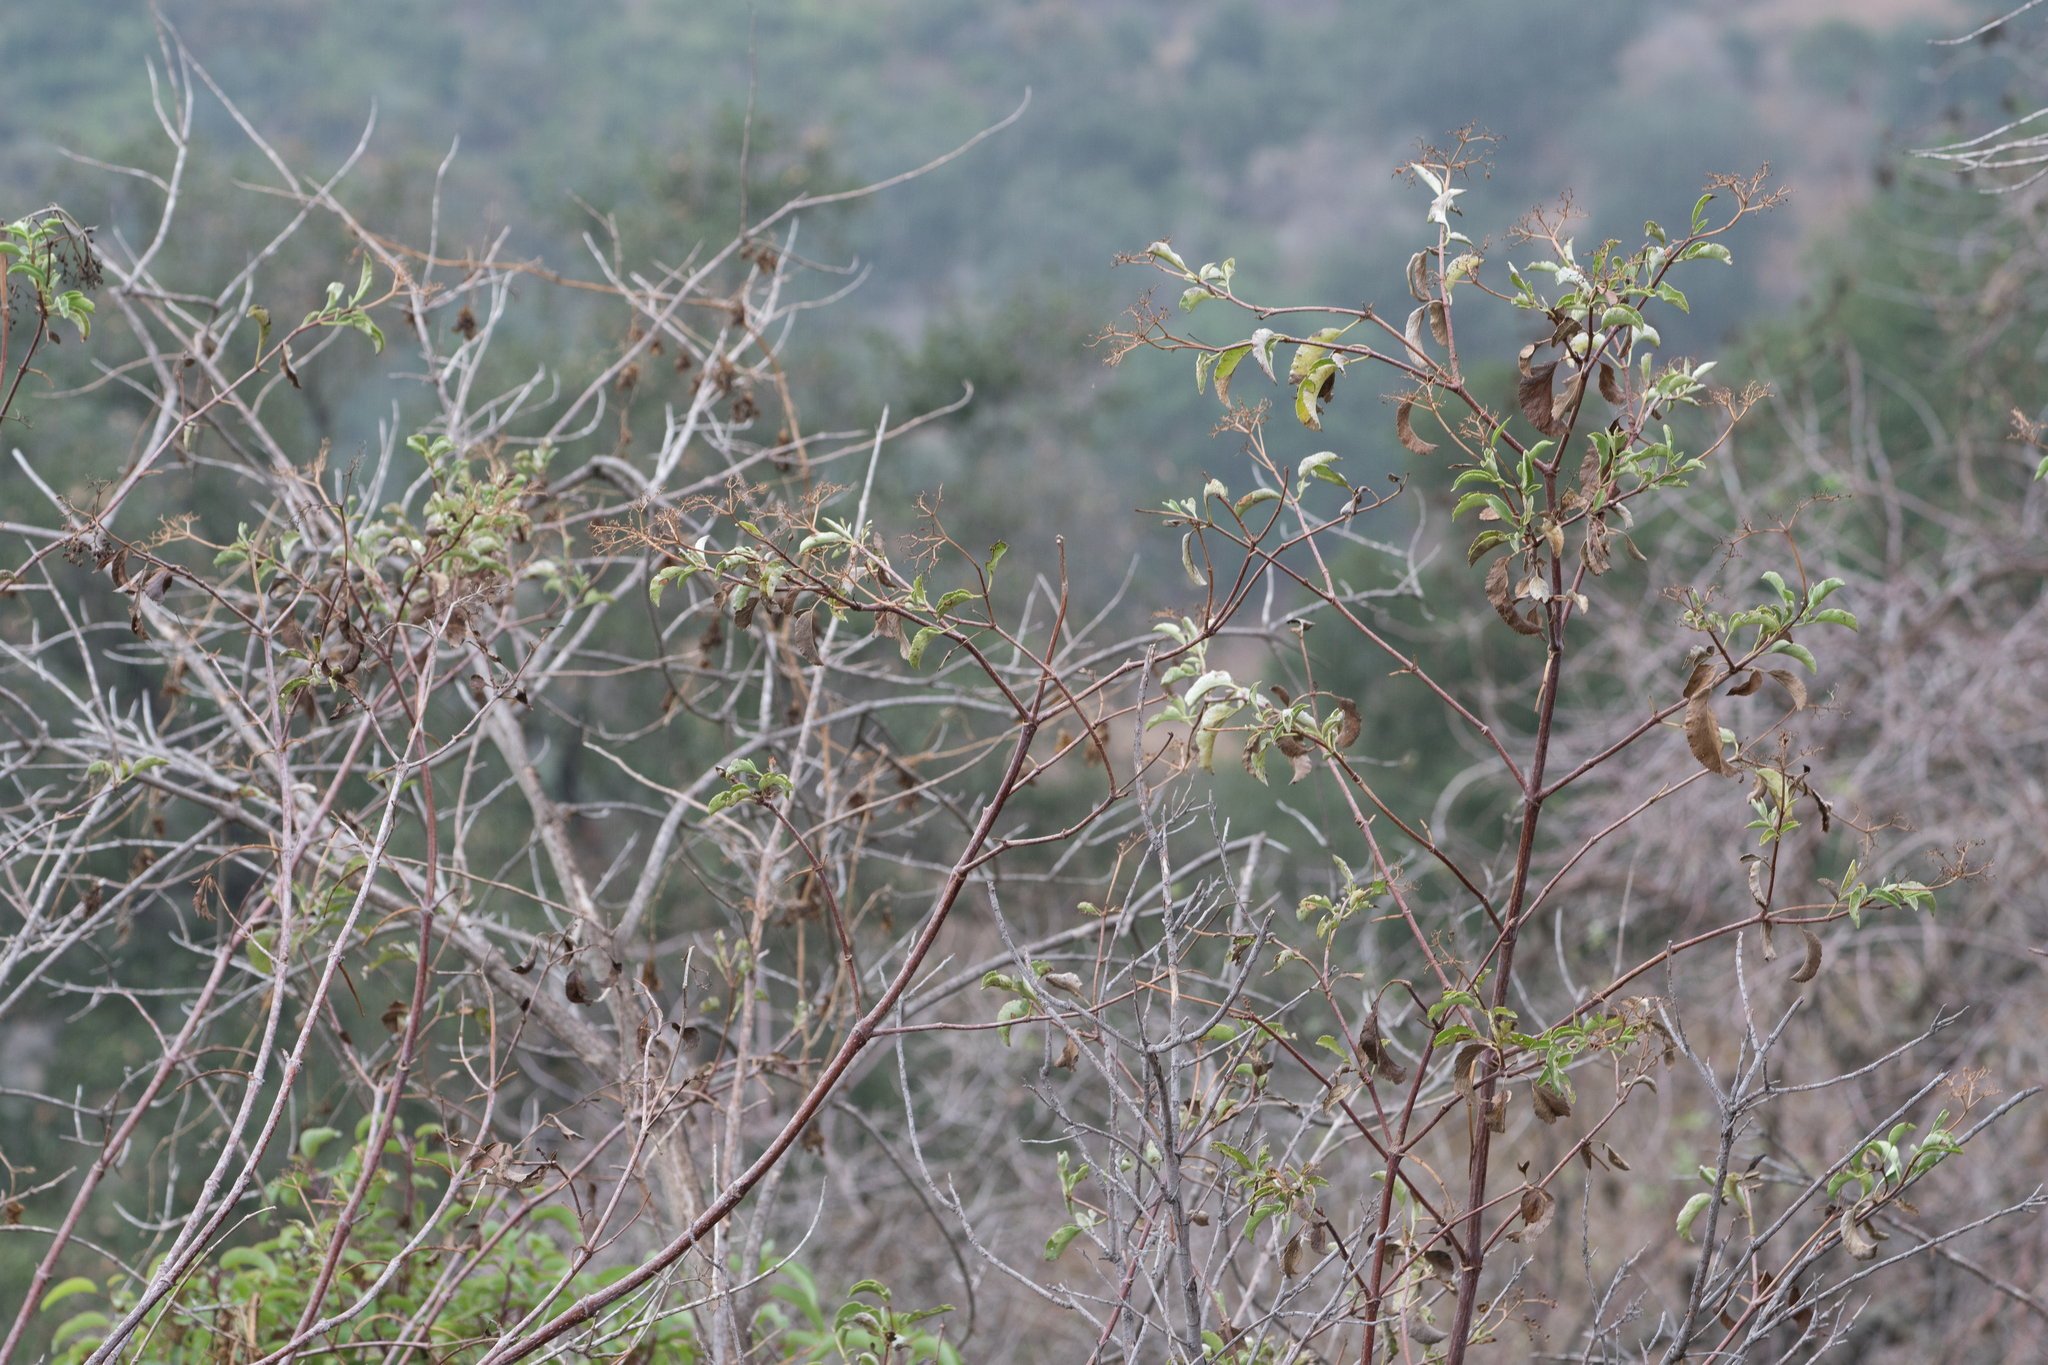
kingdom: Plantae
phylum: Tracheophyta
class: Magnoliopsida
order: Dipsacales
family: Viburnaceae
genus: Sambucus
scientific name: Sambucus cerulea
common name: Blue elder
